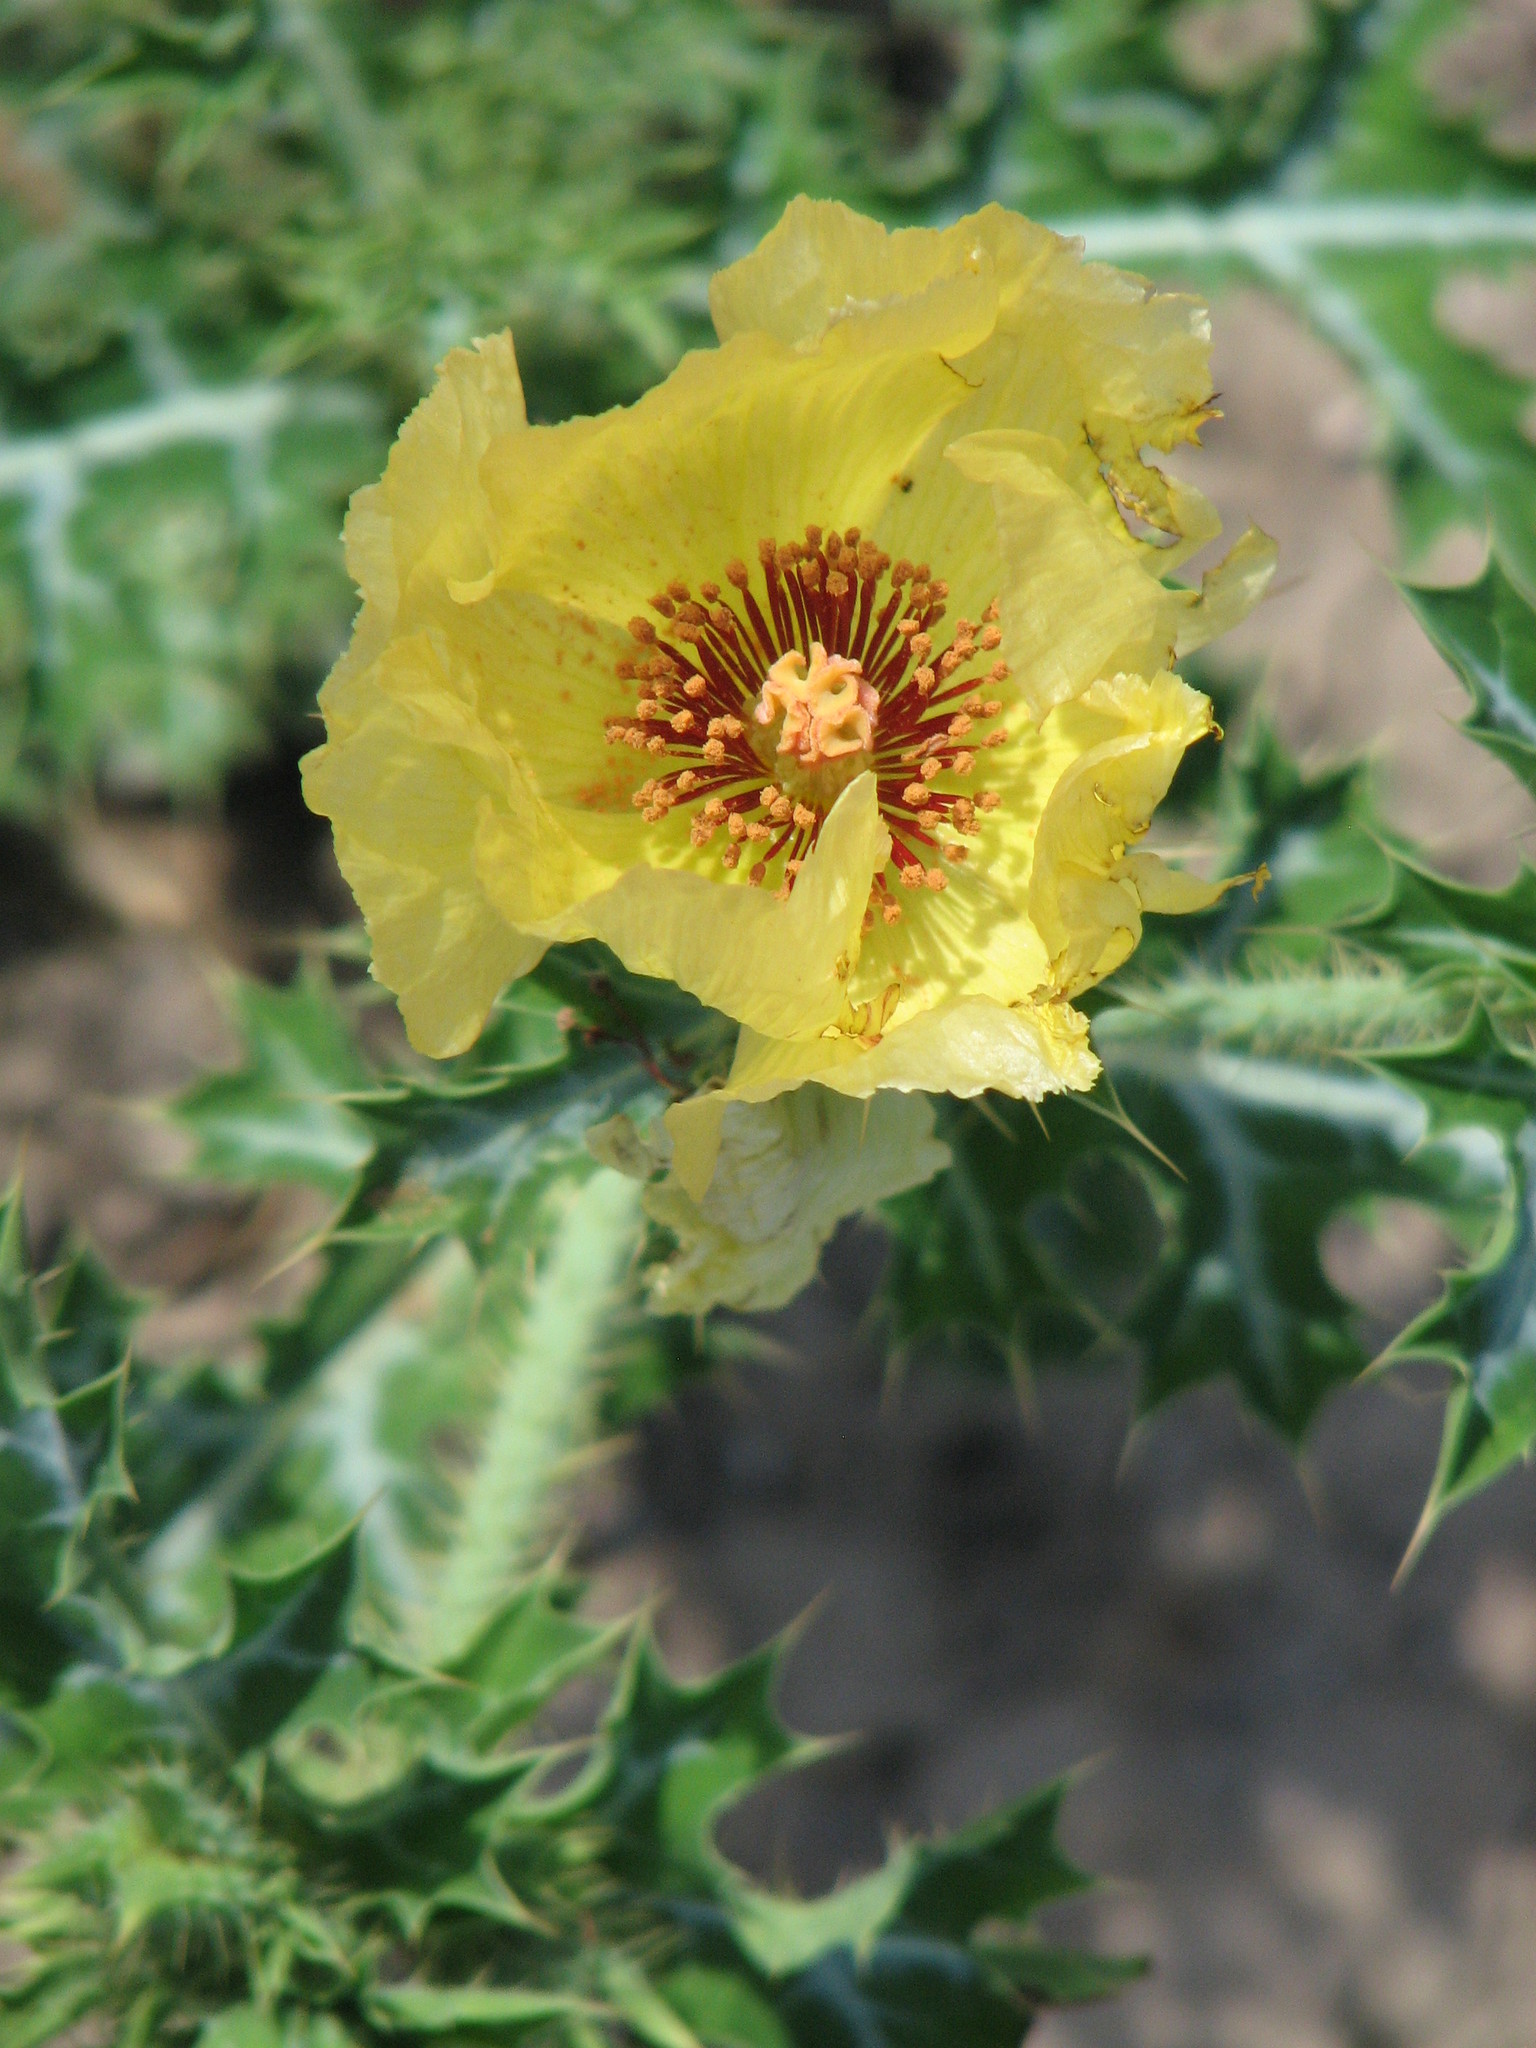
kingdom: Plantae
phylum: Tracheophyta
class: Magnoliopsida
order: Ranunculales
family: Papaveraceae
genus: Argemone
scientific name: Argemone aenea
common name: Golden prickly-poppy
